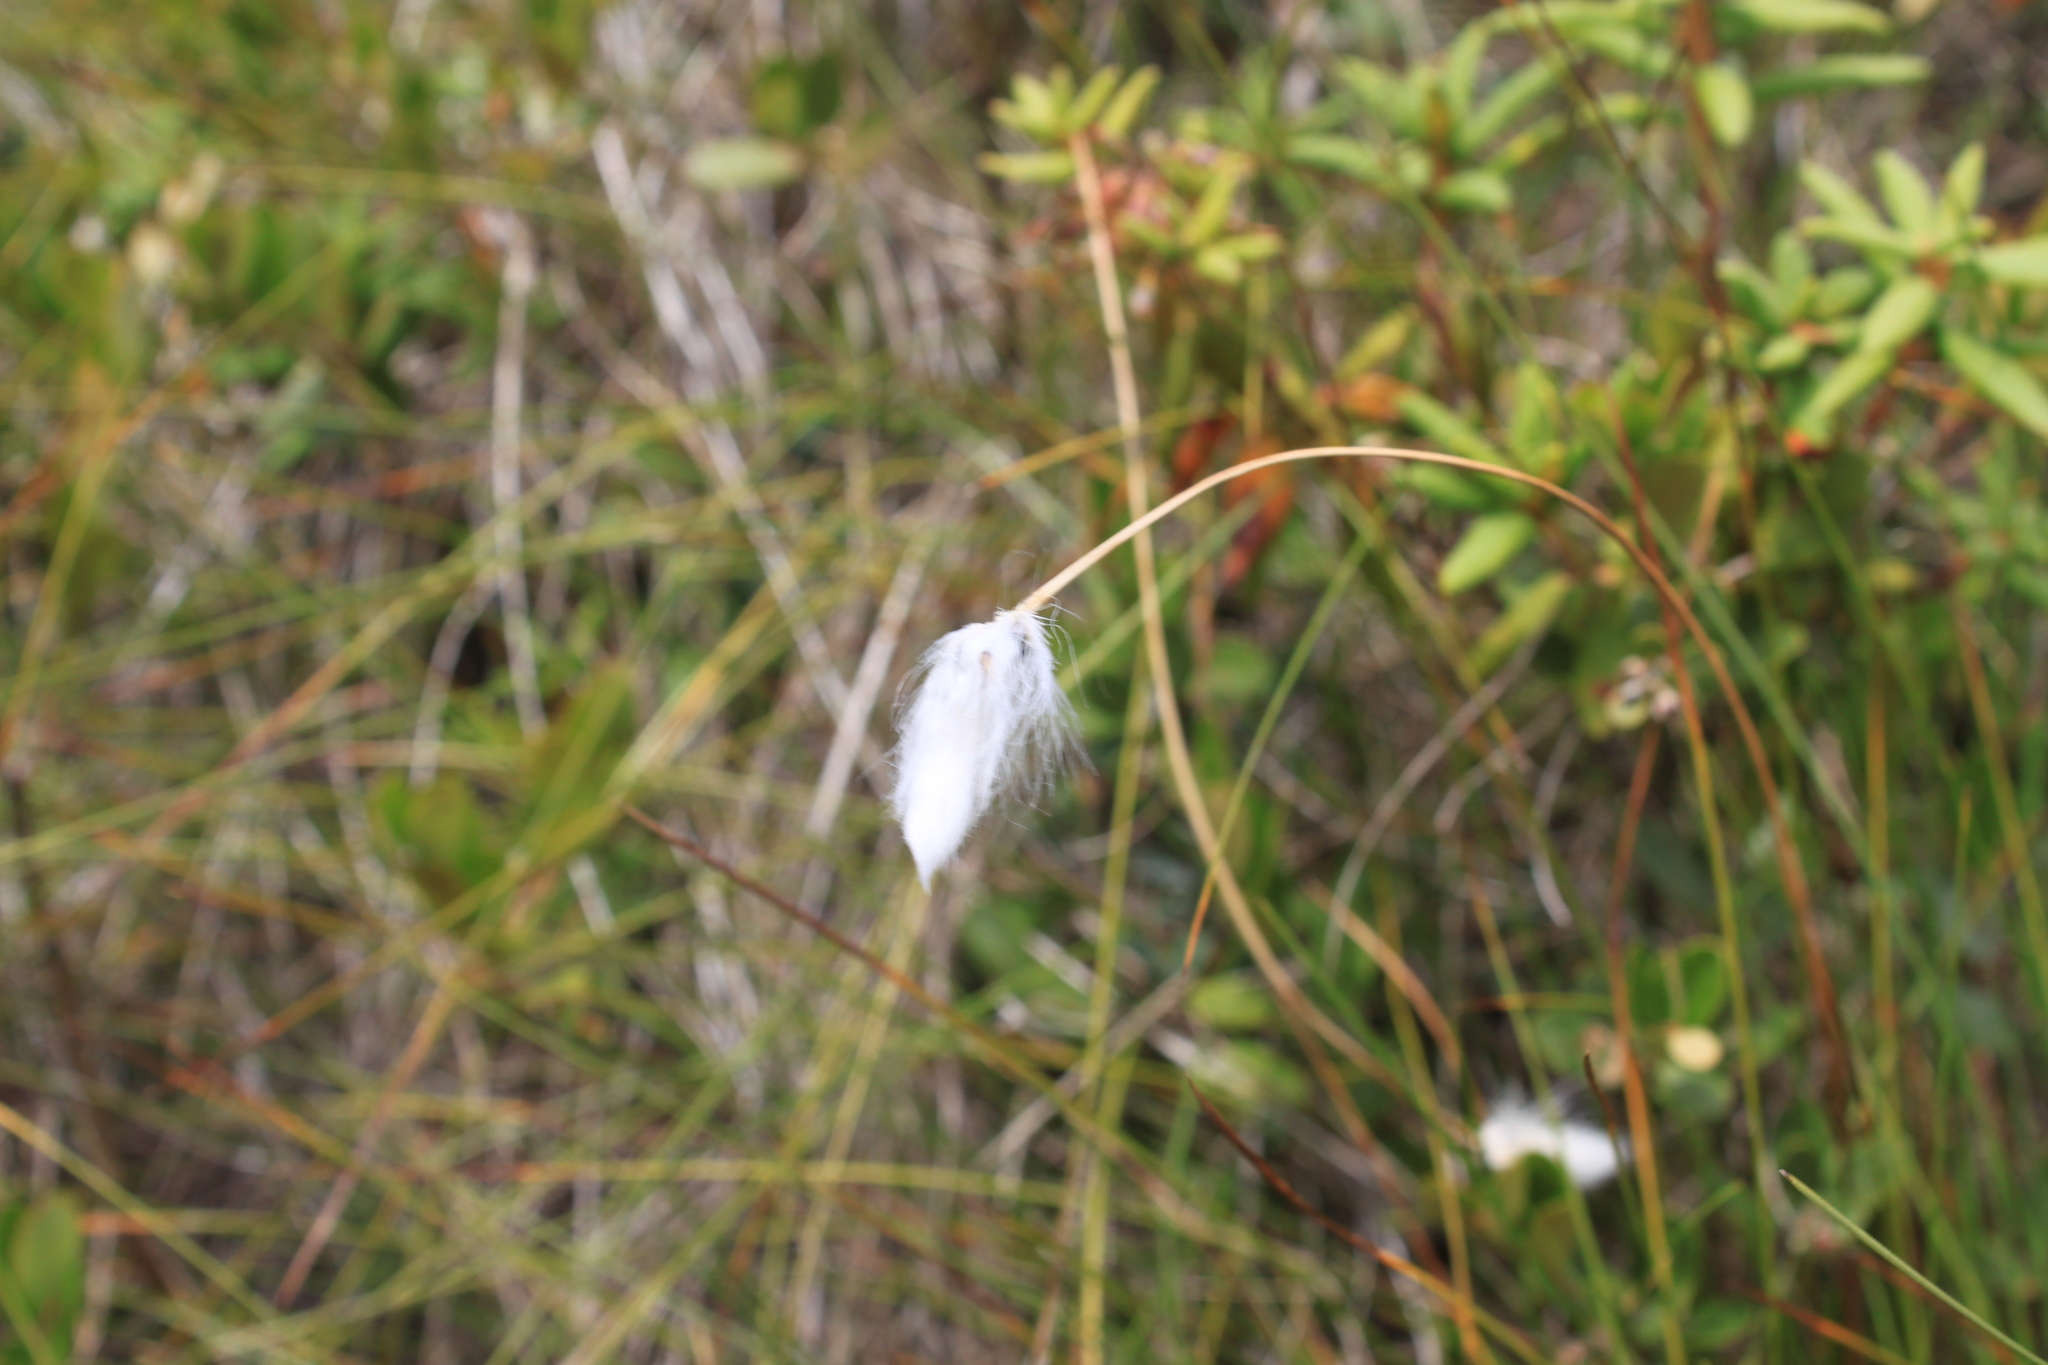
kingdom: Plantae
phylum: Tracheophyta
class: Liliopsida
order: Poales
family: Cyperaceae
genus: Eriophorum
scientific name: Eriophorum vaginatum
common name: Hare's-tail cottongrass
